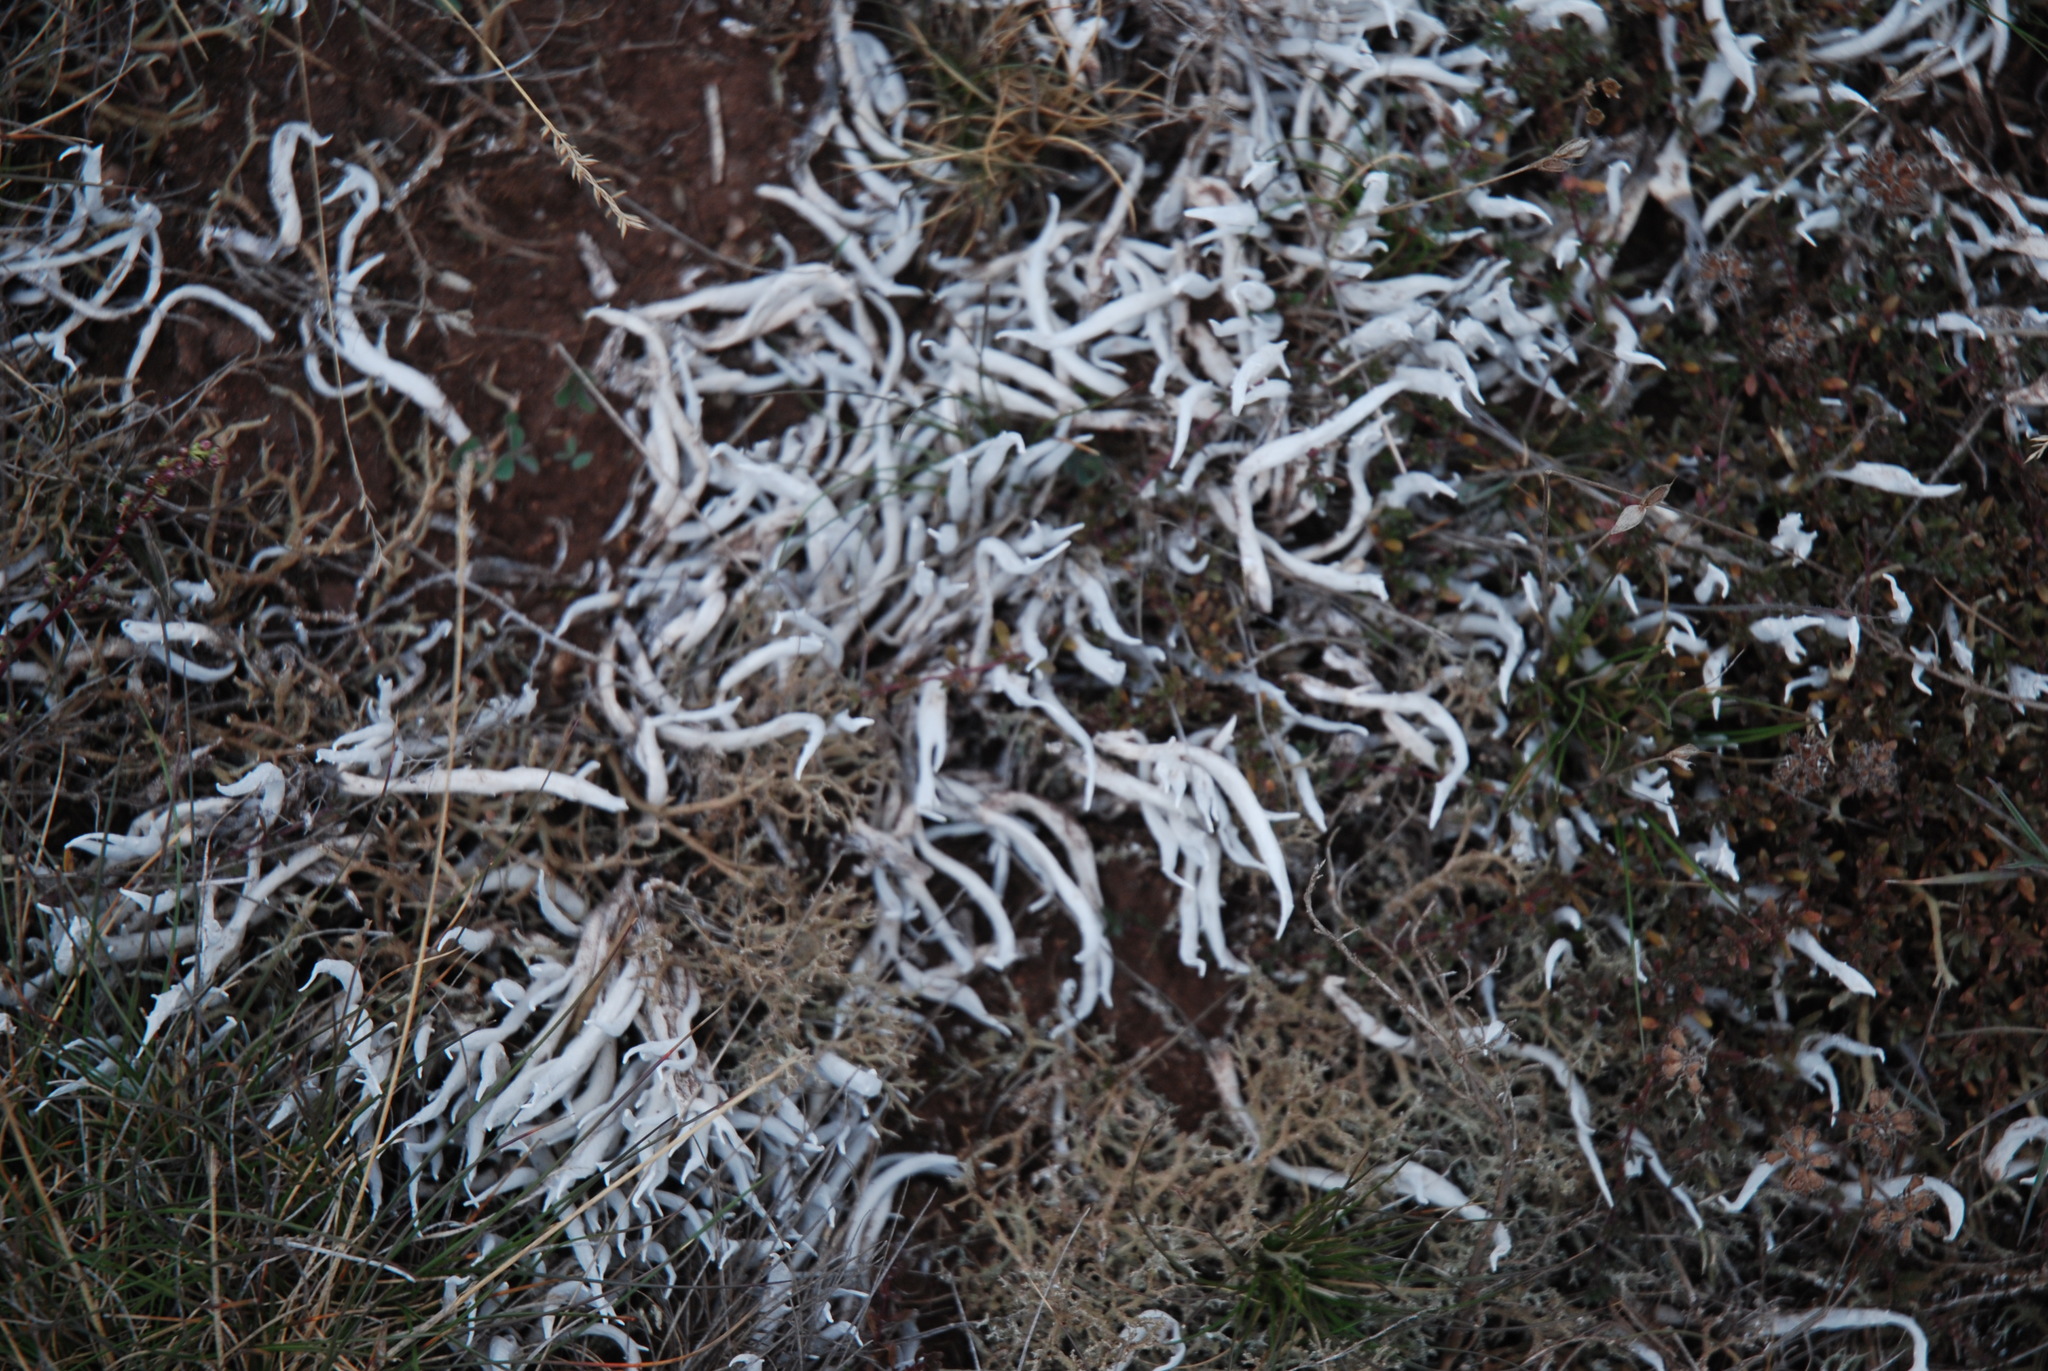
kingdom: Fungi
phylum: Ascomycota
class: Lecanoromycetes
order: Pertusariales
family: Icmadophilaceae
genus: Thamnolia
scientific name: Thamnolia vermicularis
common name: Whiteworm lichen
